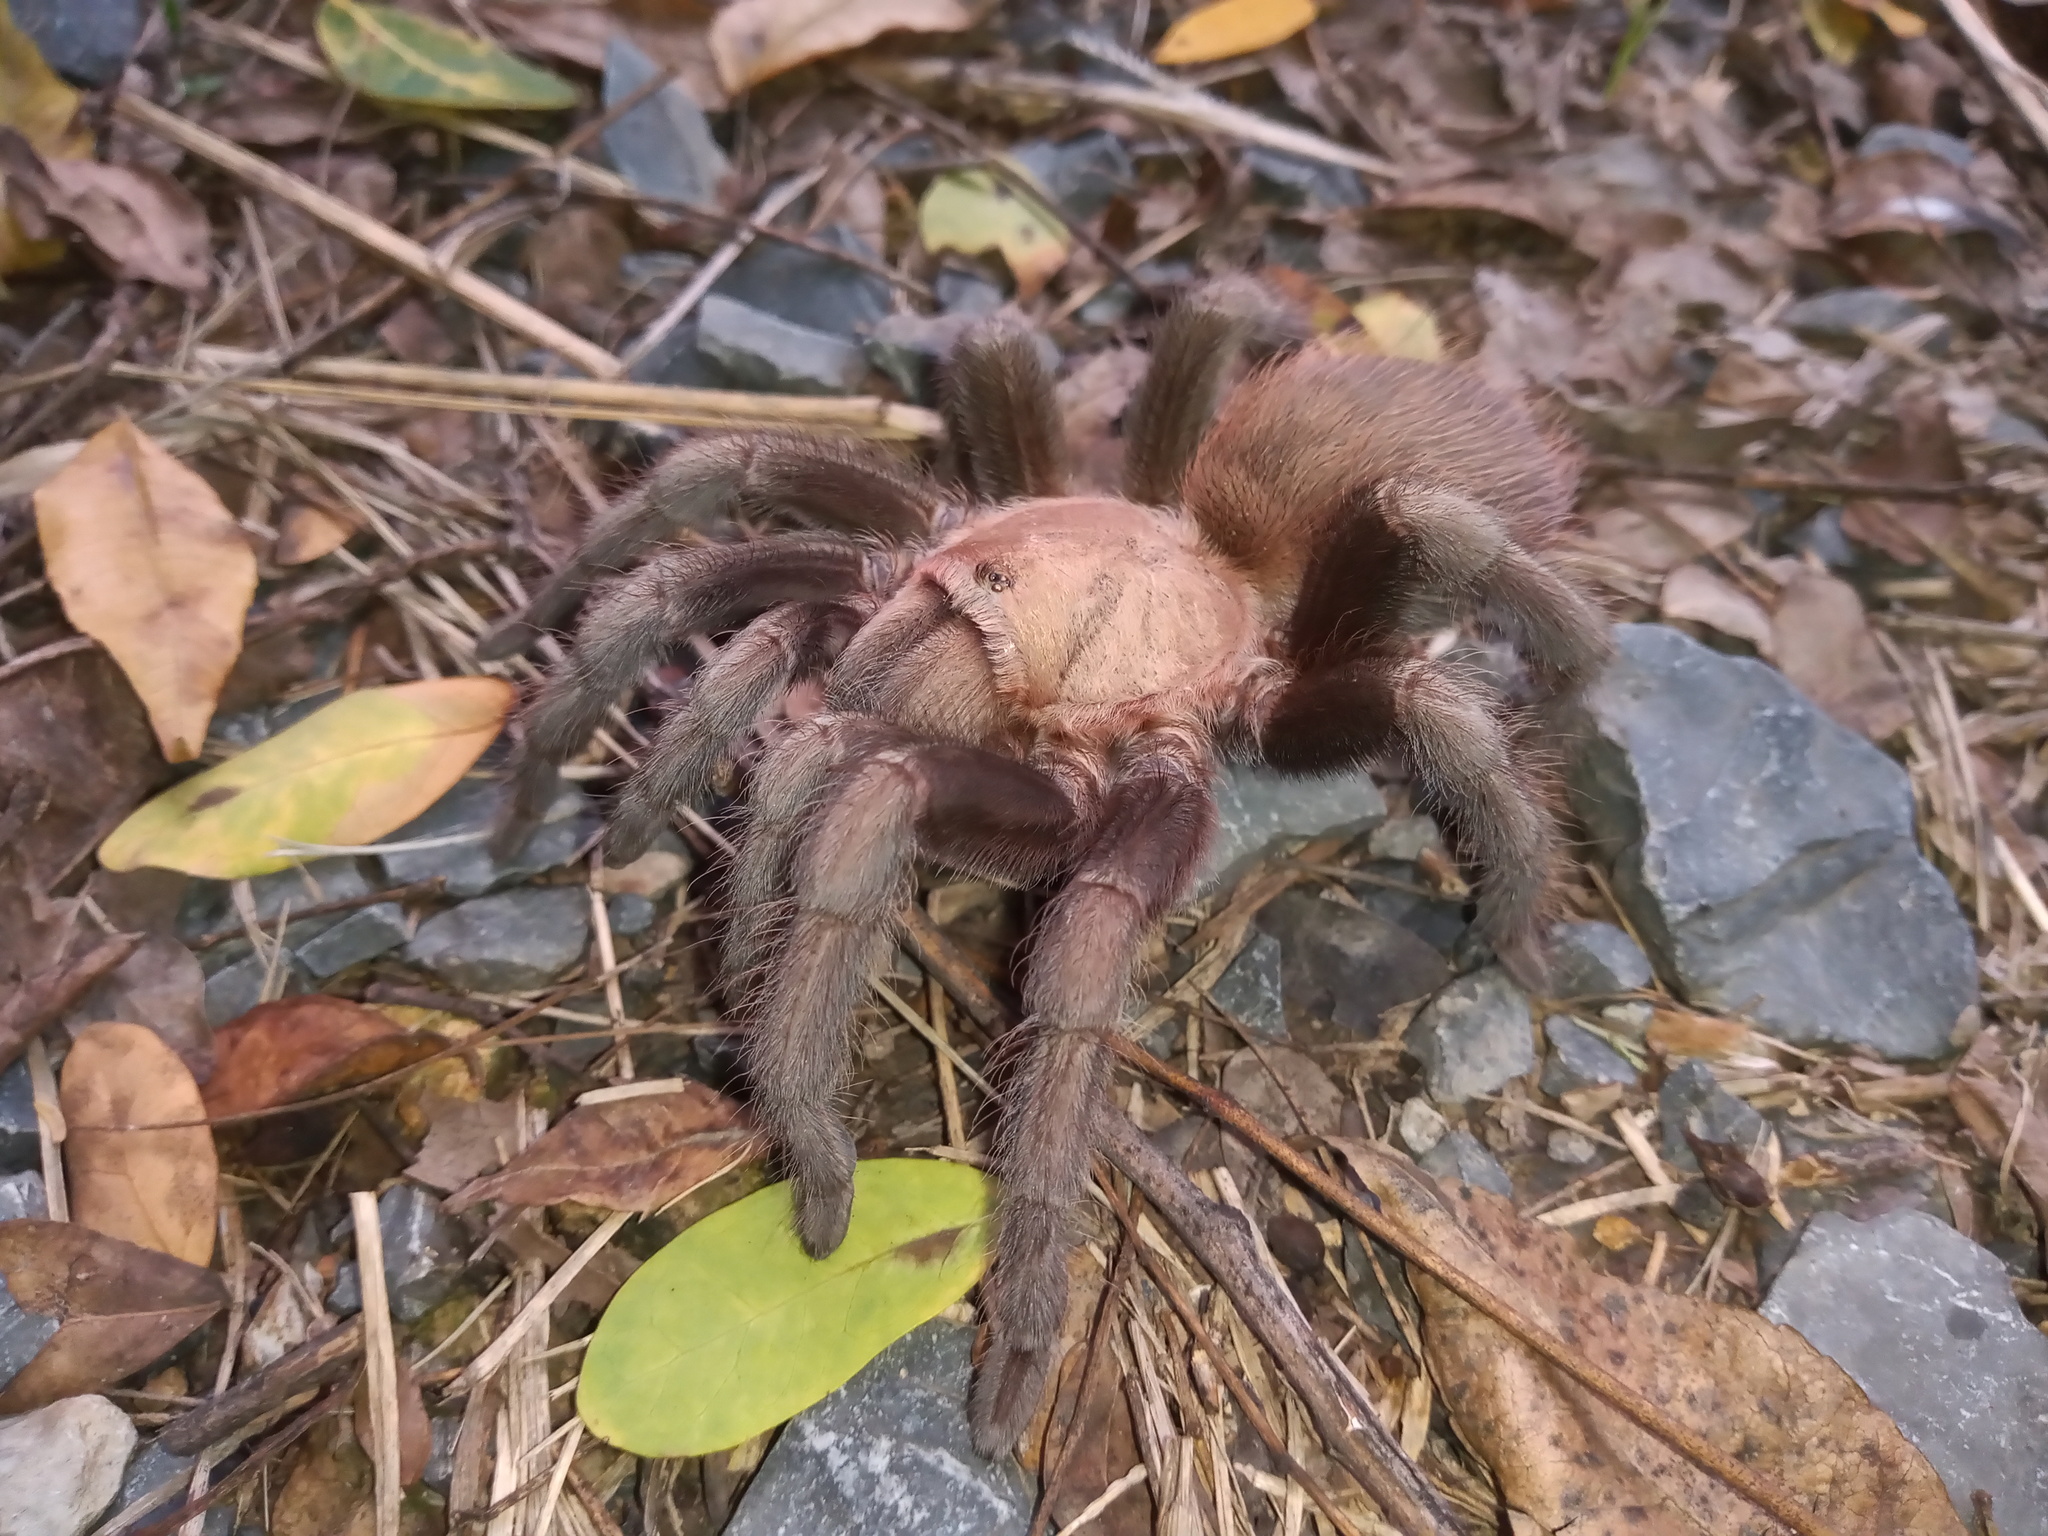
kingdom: Animalia
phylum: Arthropoda
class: Arachnida
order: Araneae
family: Theraphosidae
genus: Aphonopelma
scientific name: Aphonopelma hentzi
